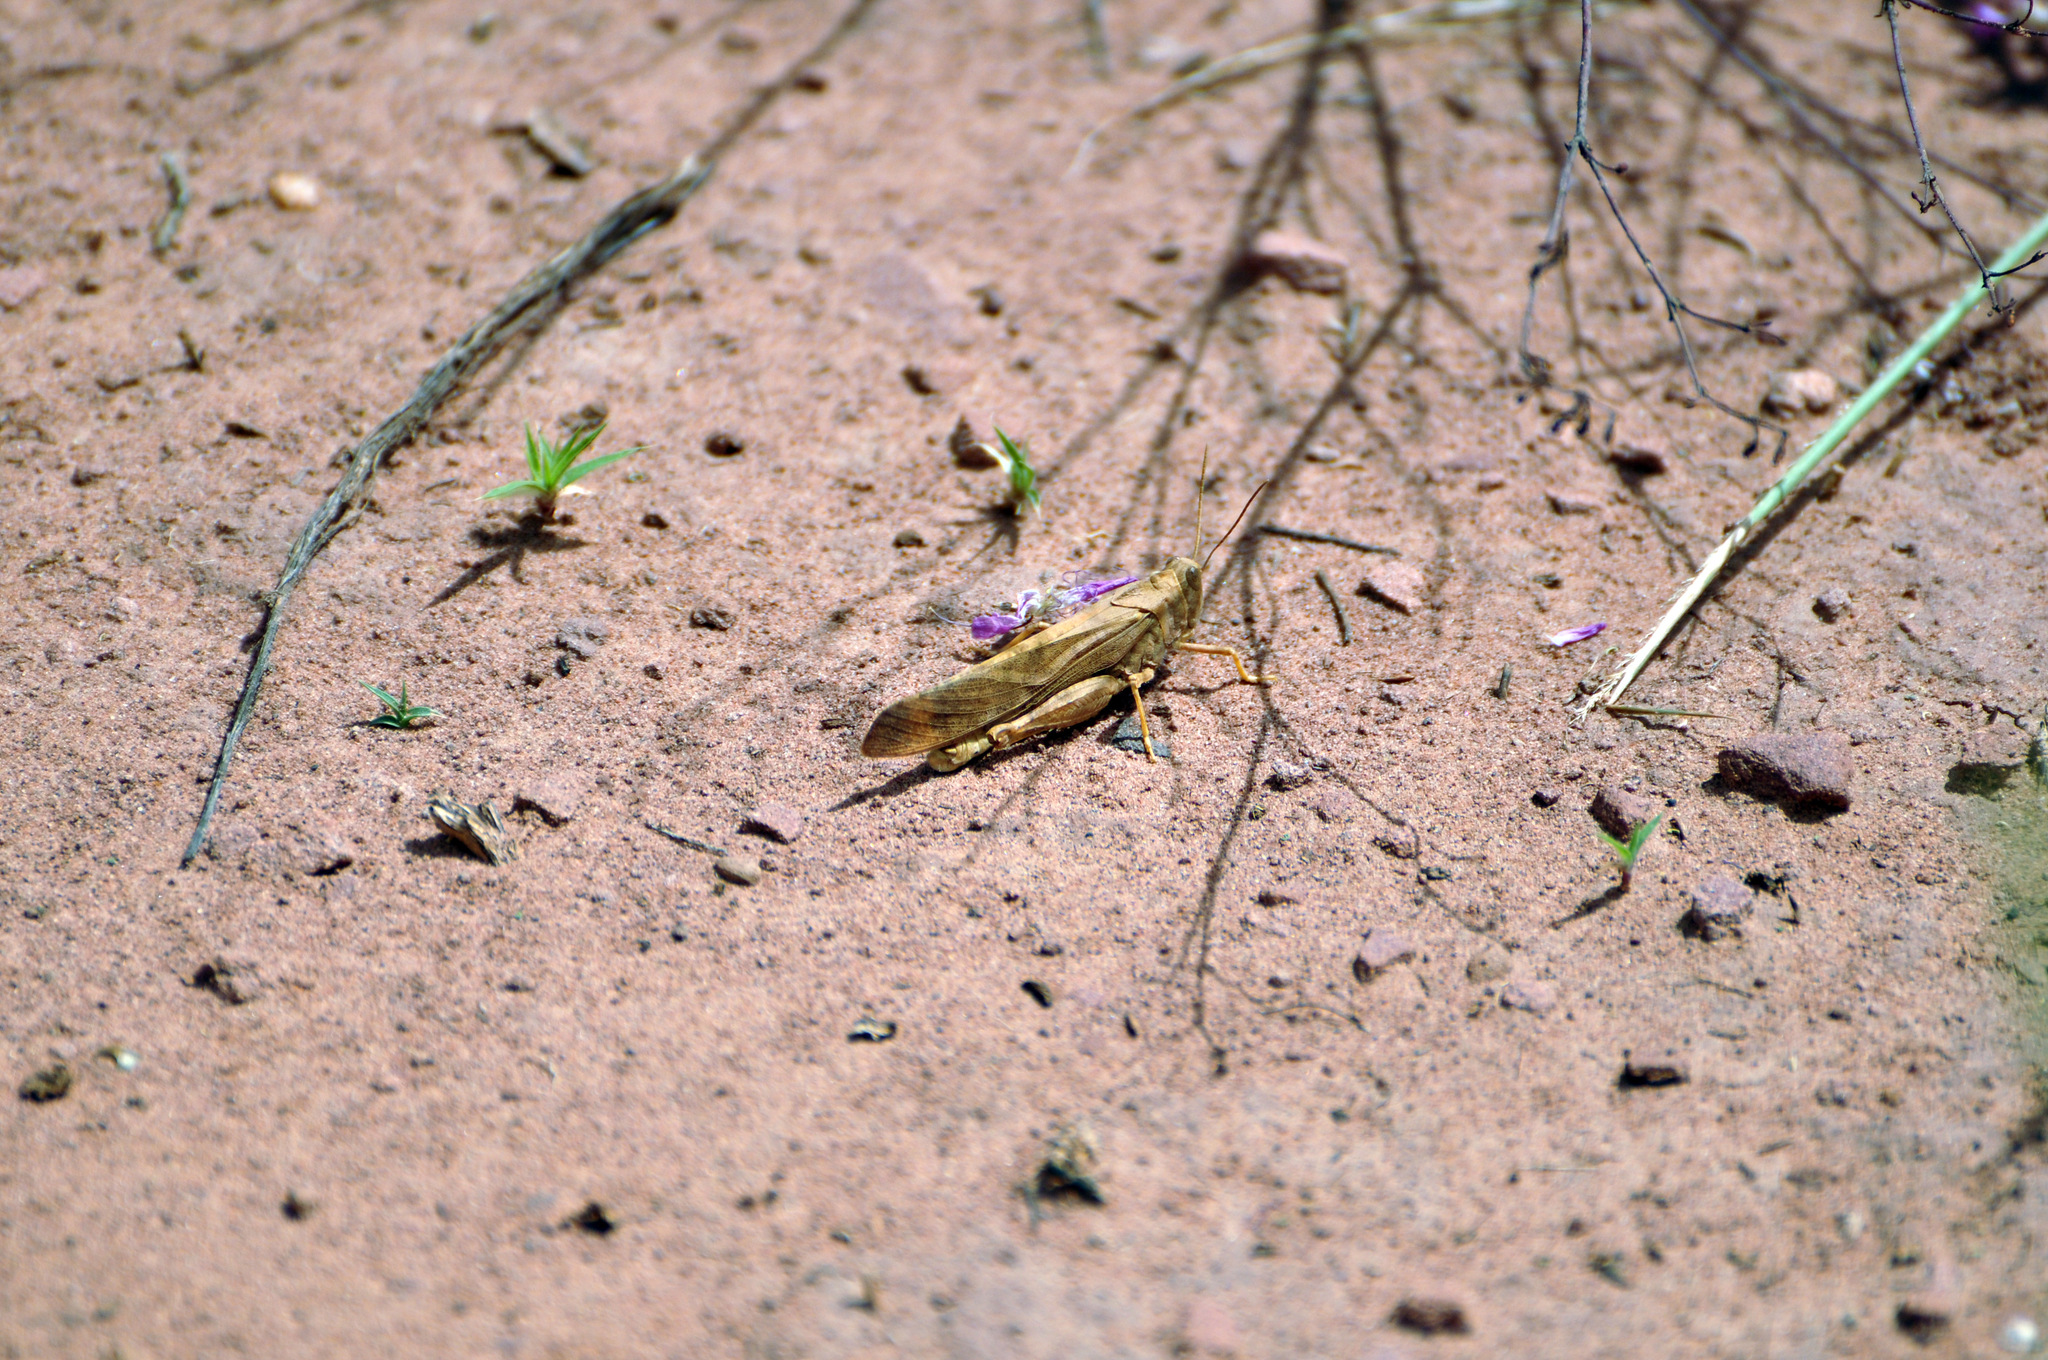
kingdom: Animalia
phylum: Arthropoda
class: Insecta
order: Orthoptera
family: Acrididae
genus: Dissosteira
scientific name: Dissosteira carolina
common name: Carolina grasshopper
